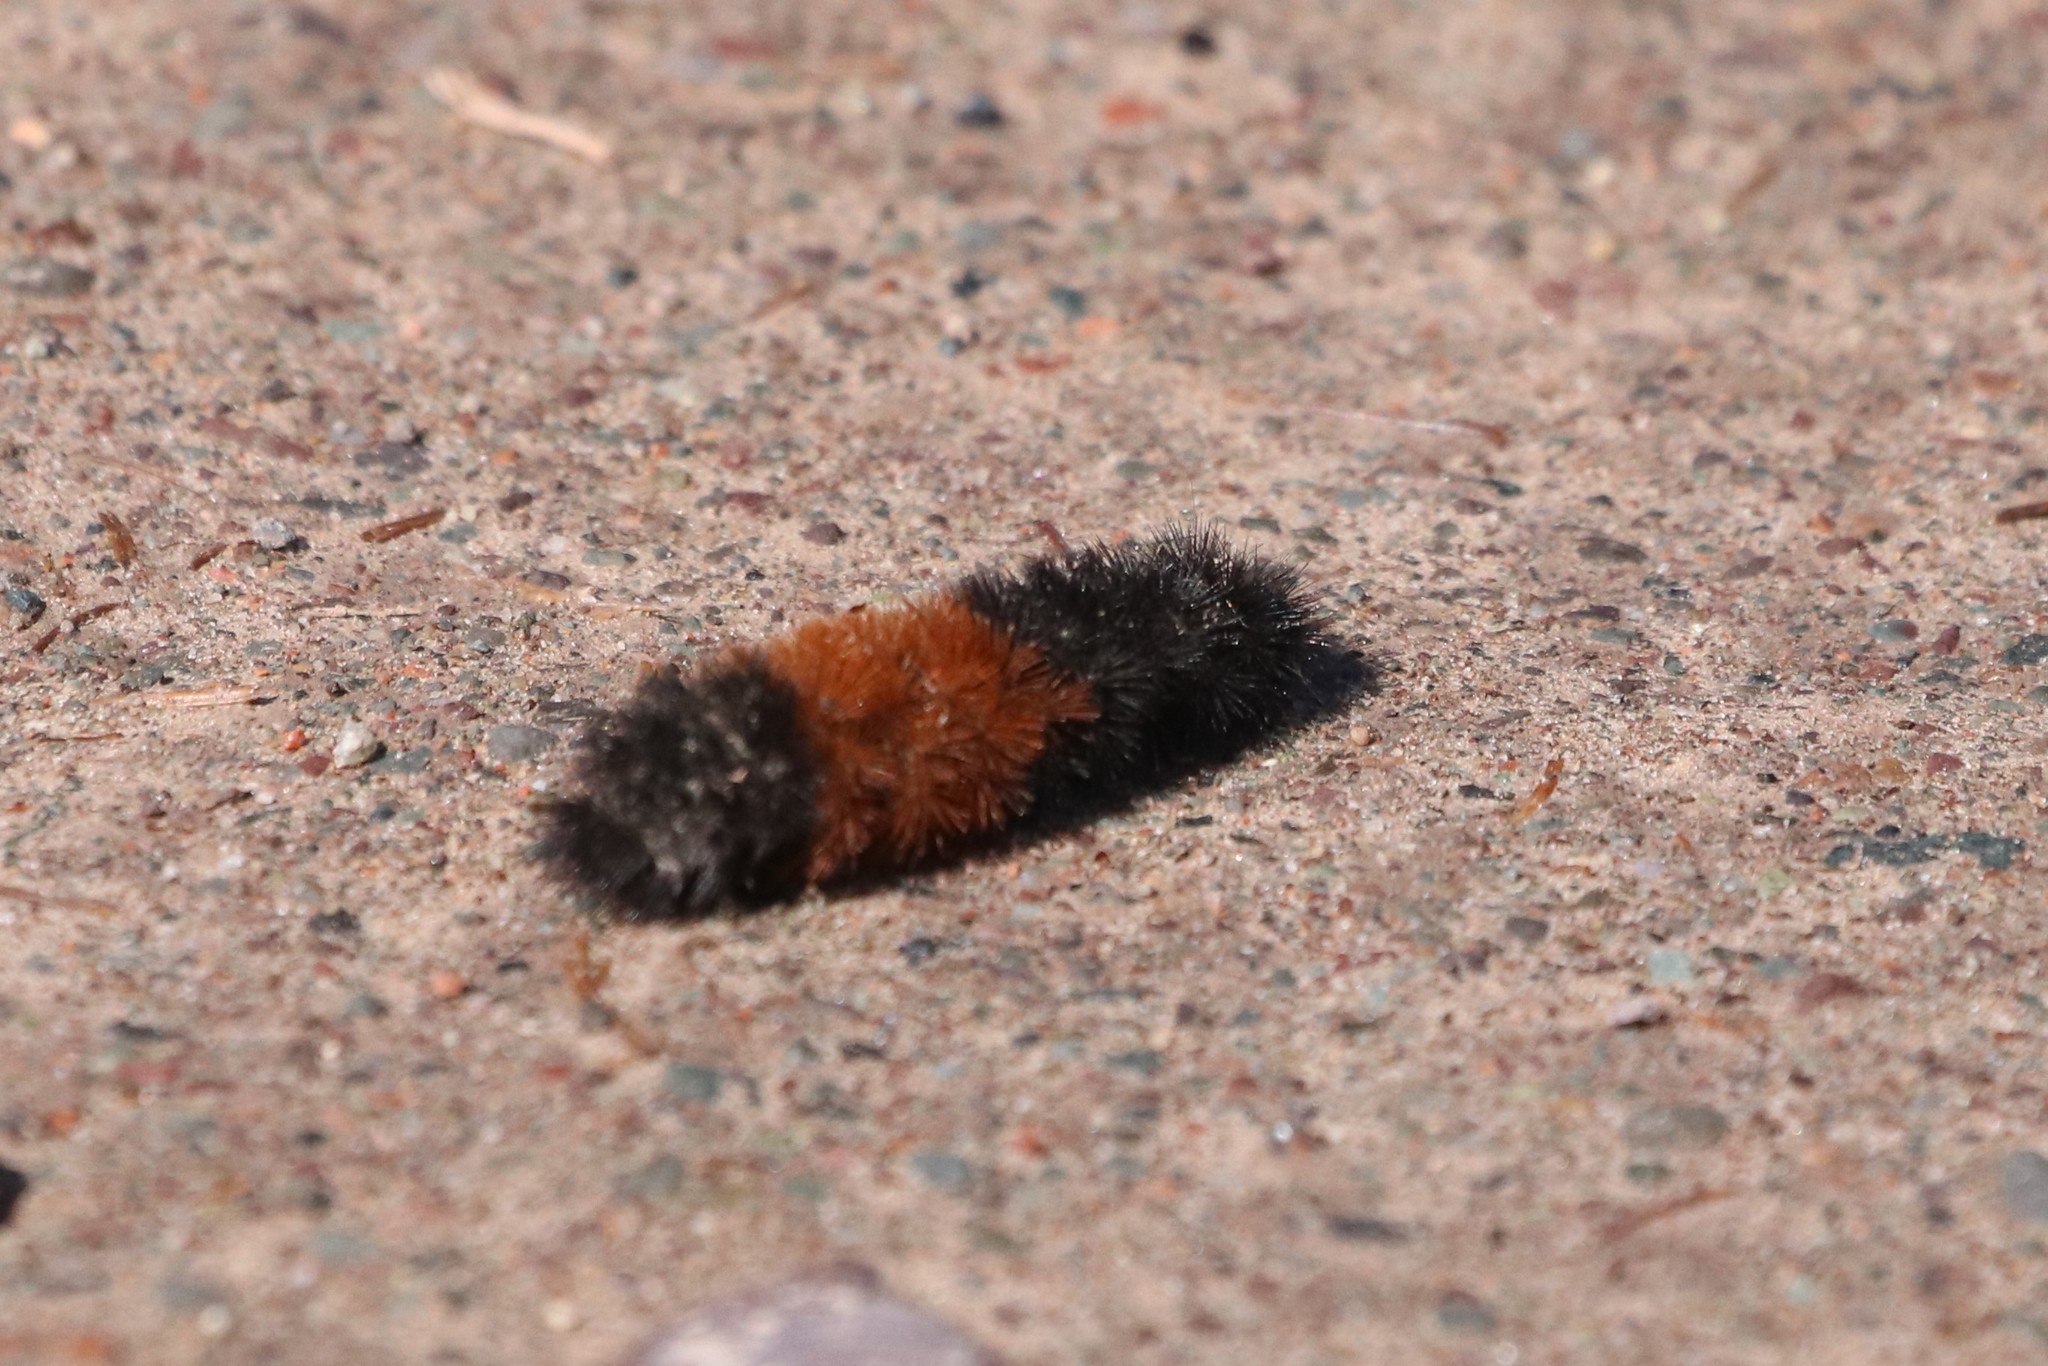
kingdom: Animalia
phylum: Arthropoda
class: Insecta
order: Lepidoptera
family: Erebidae
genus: Pyrrharctia
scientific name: Pyrrharctia isabella
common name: Isabella tiger moth
